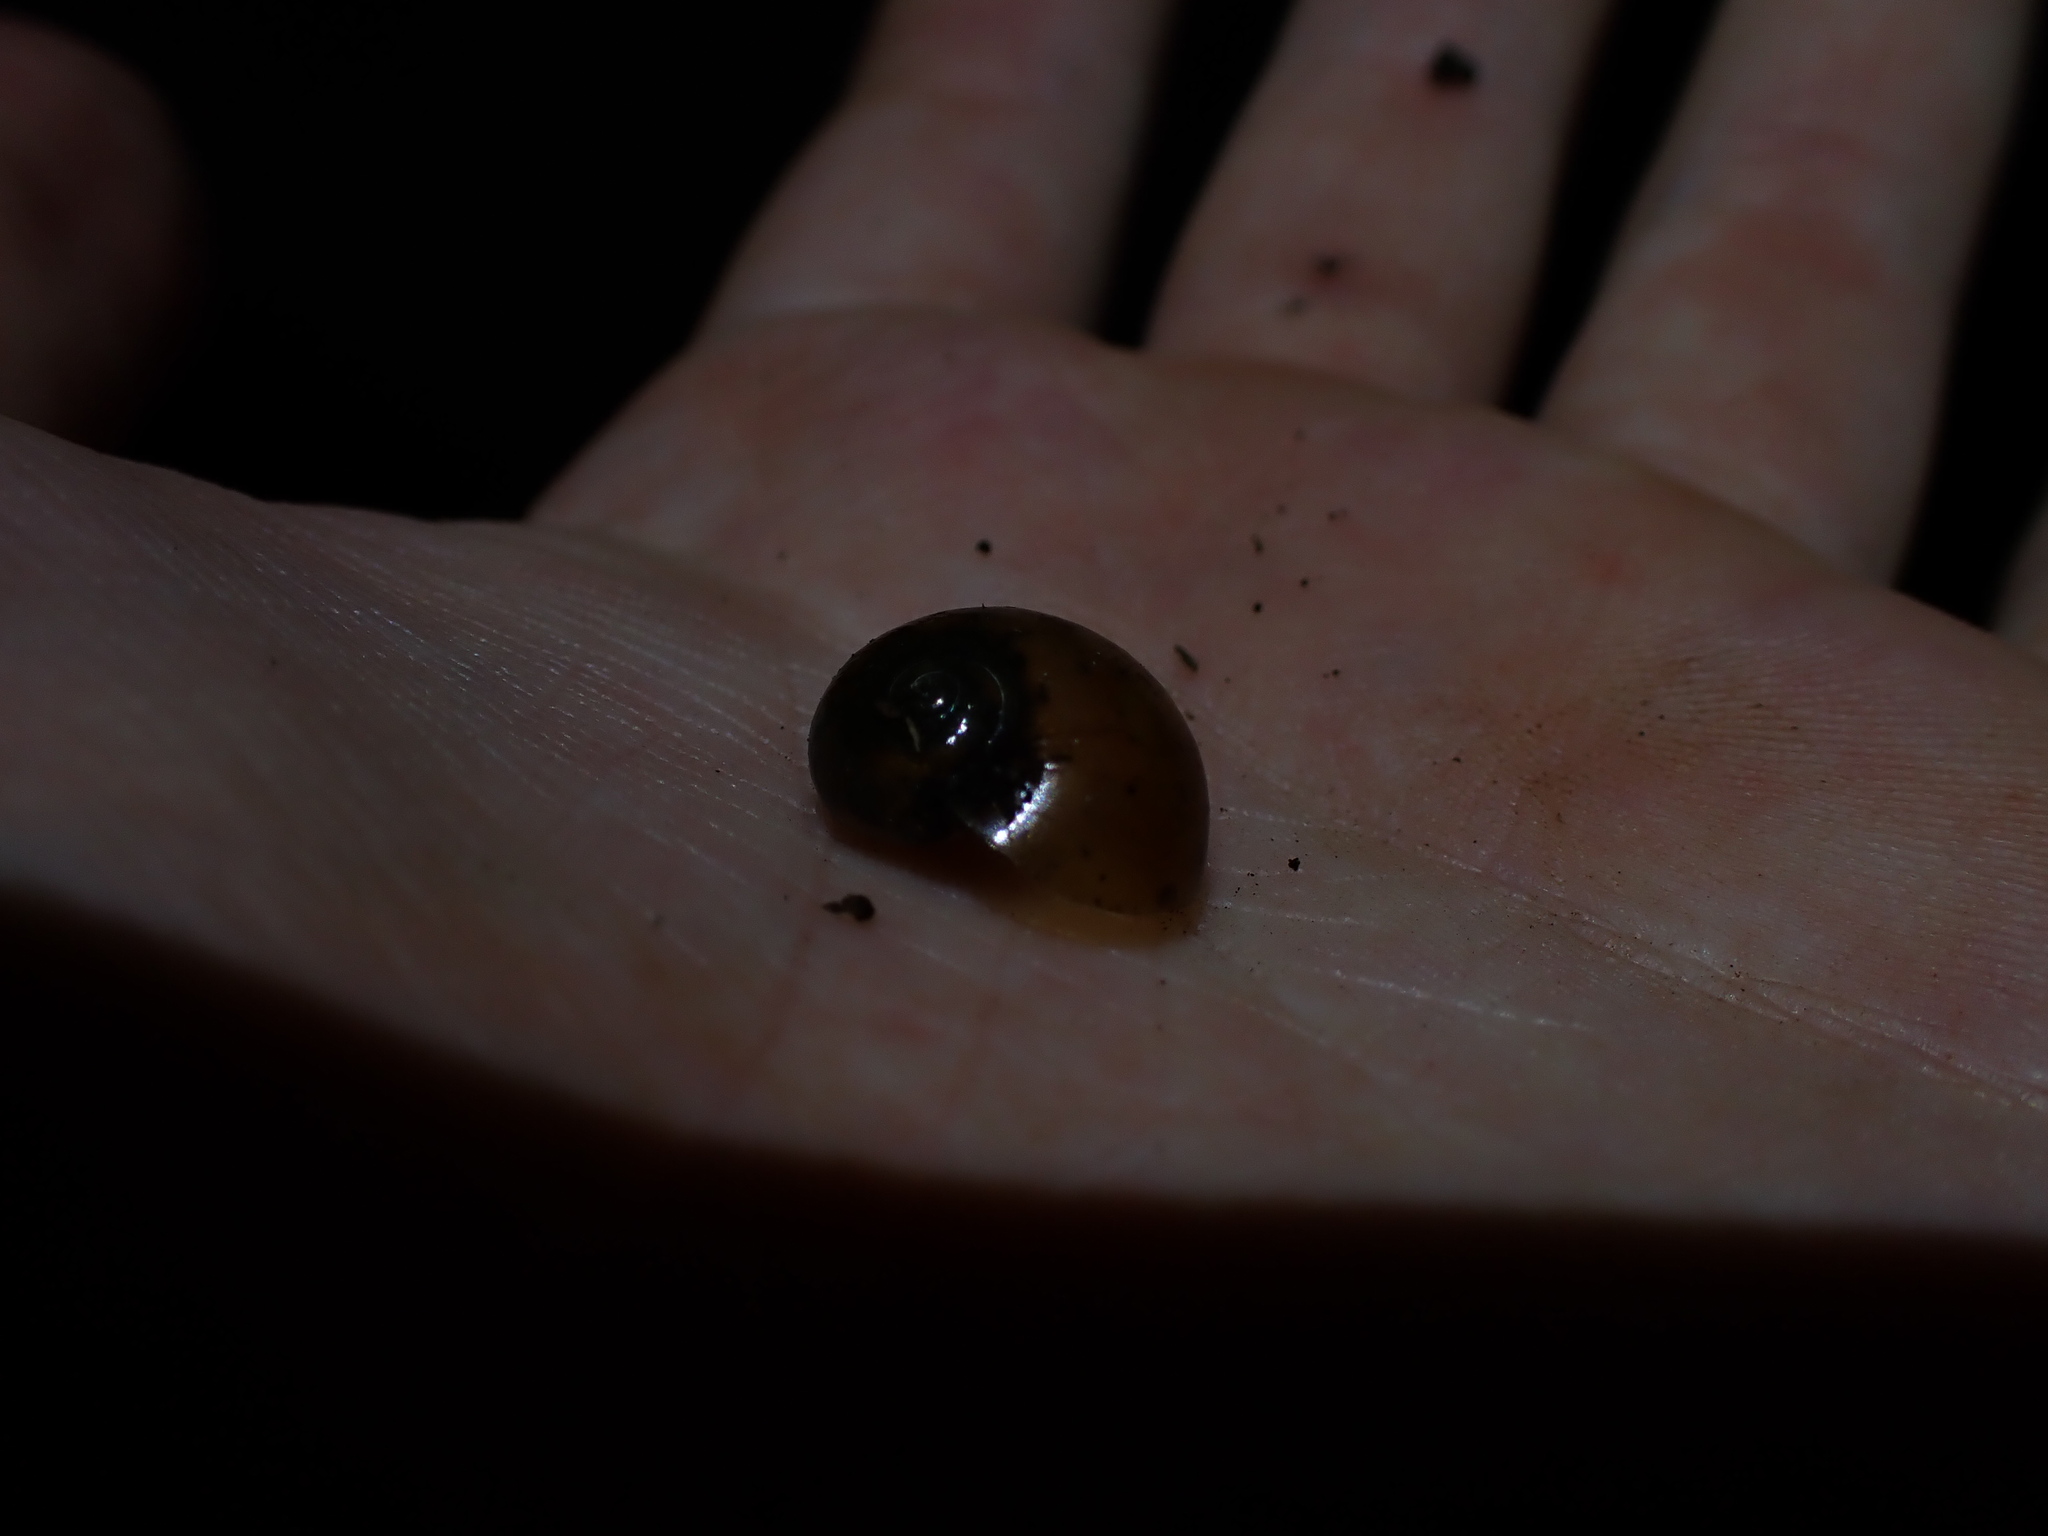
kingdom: Animalia
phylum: Mollusca
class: Gastropoda
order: Stylommatophora
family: Helicarionidae
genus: Fastosarion
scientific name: Fastosarion brazieri
